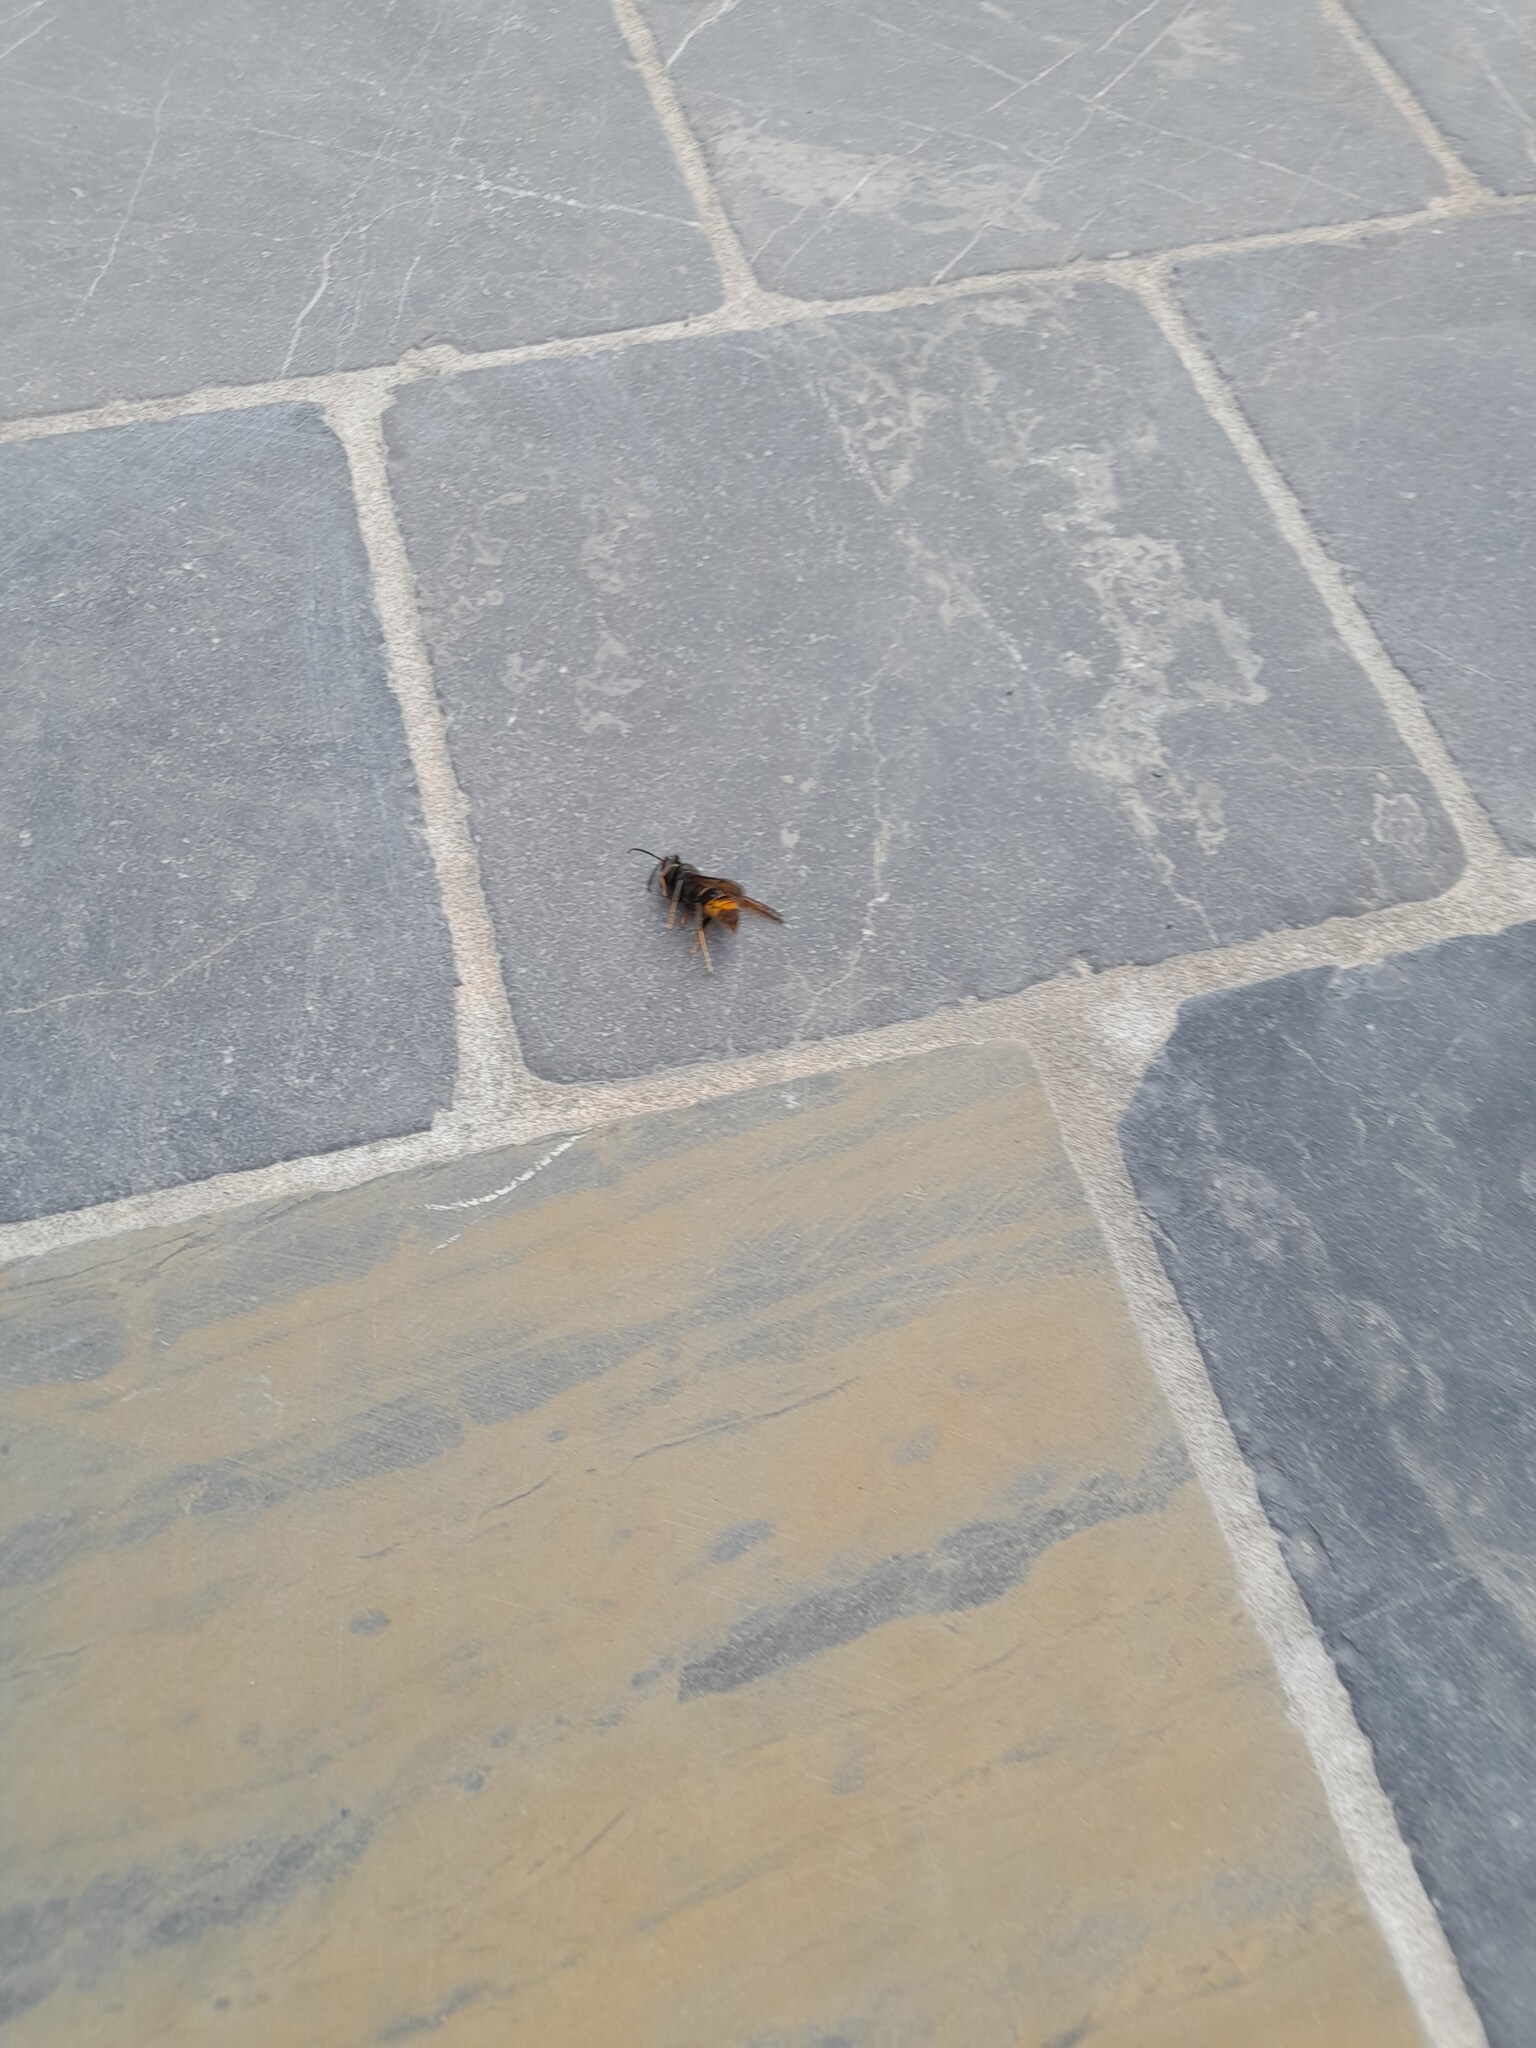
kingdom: Animalia
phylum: Arthropoda
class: Insecta
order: Hymenoptera
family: Vespidae
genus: Vespa
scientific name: Vespa velutina
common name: Asian hornet
